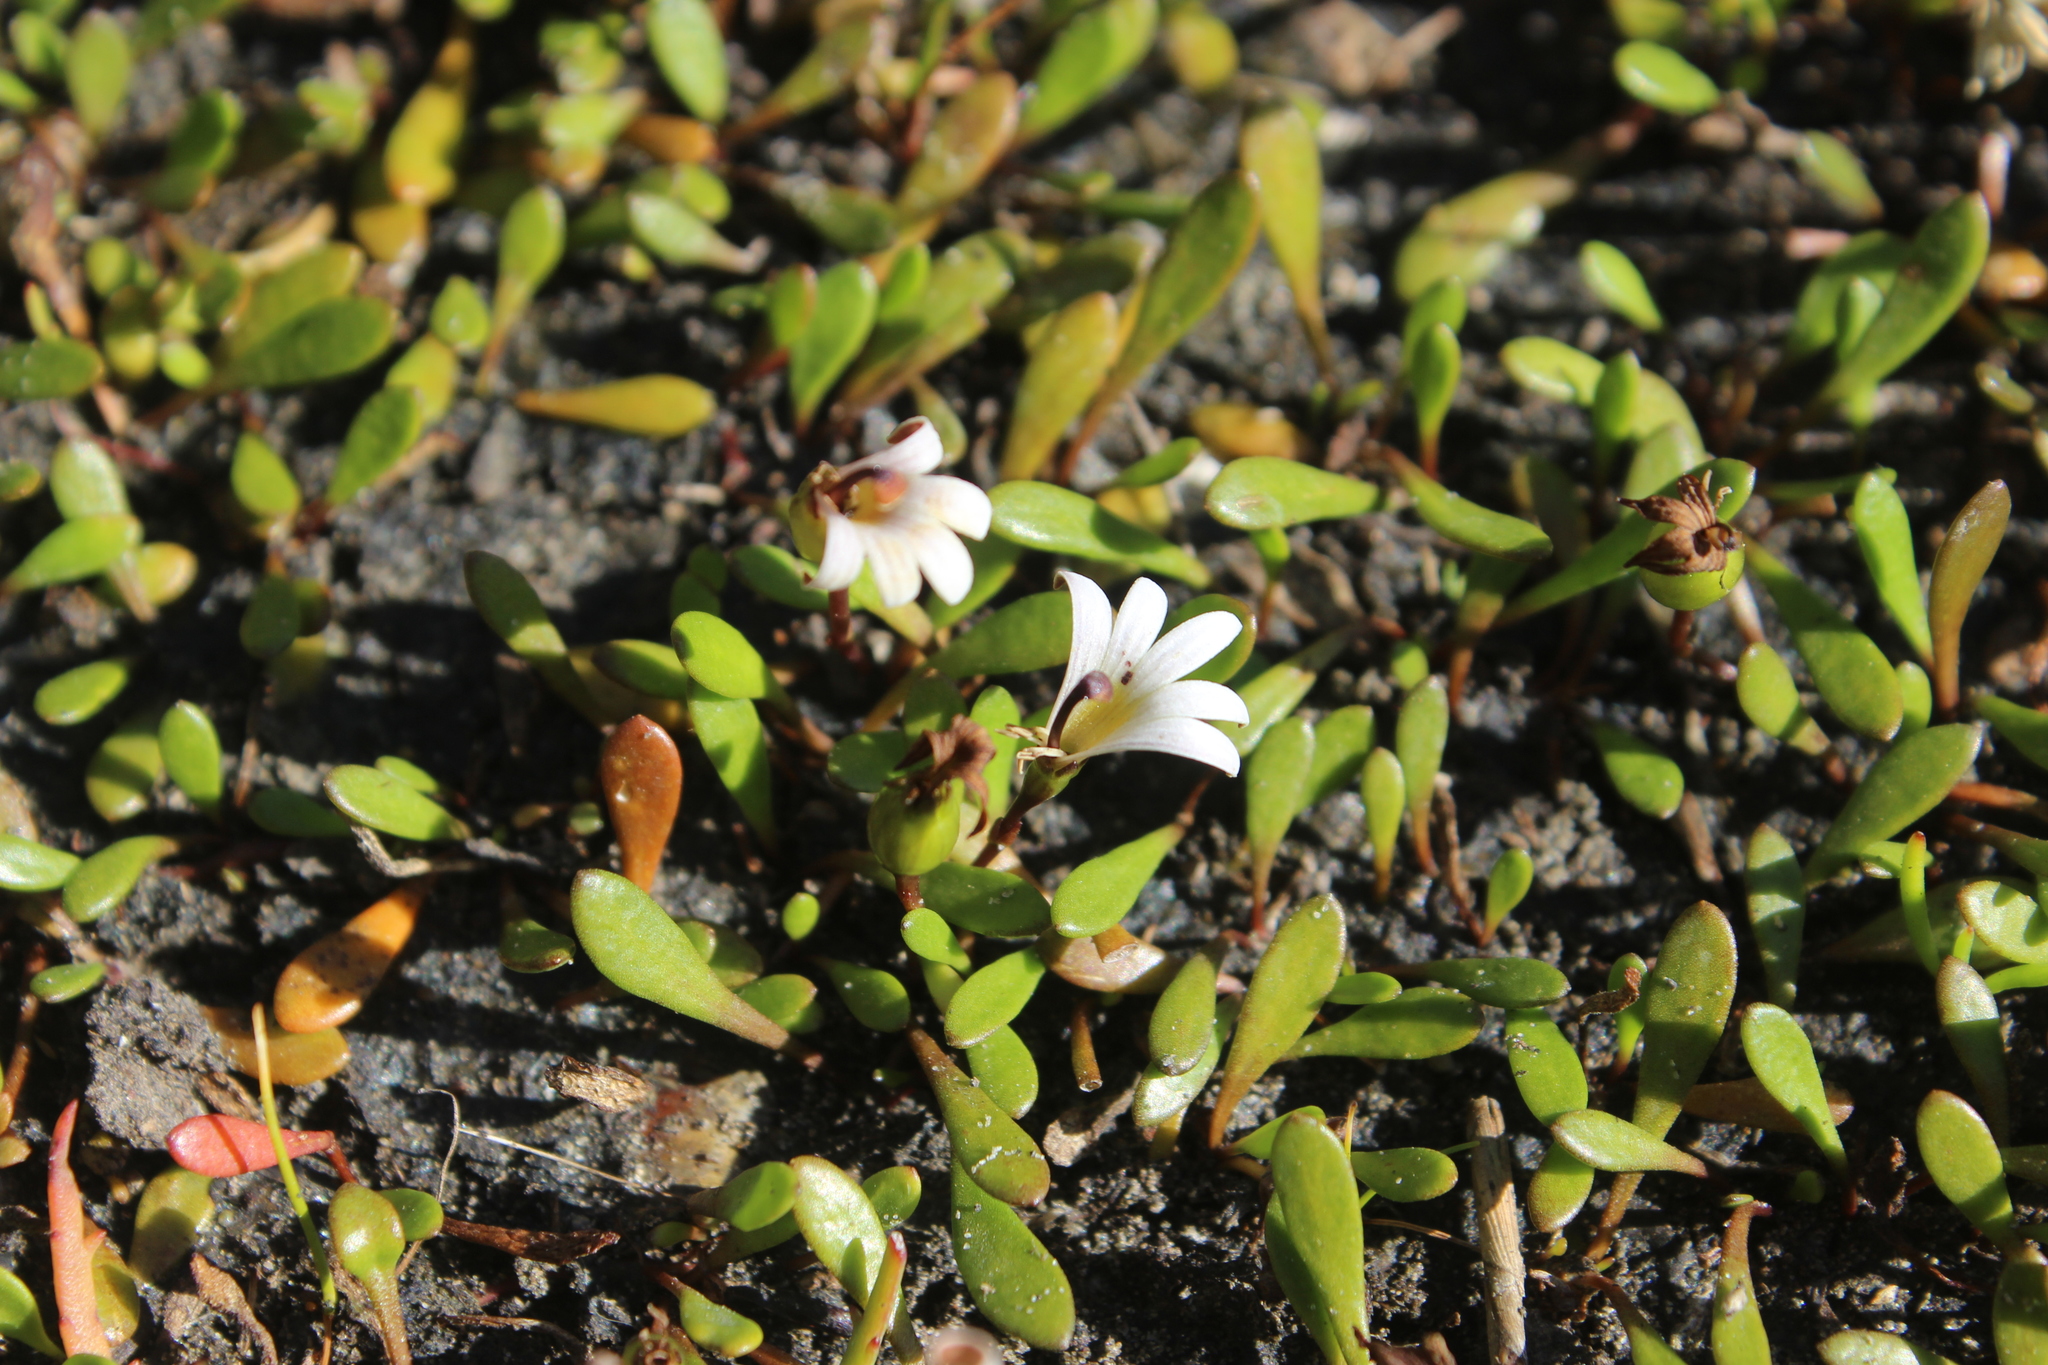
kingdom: Plantae
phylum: Tracheophyta
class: Magnoliopsida
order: Asterales
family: Goodeniaceae
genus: Goodenia
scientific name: Goodenia radicans
